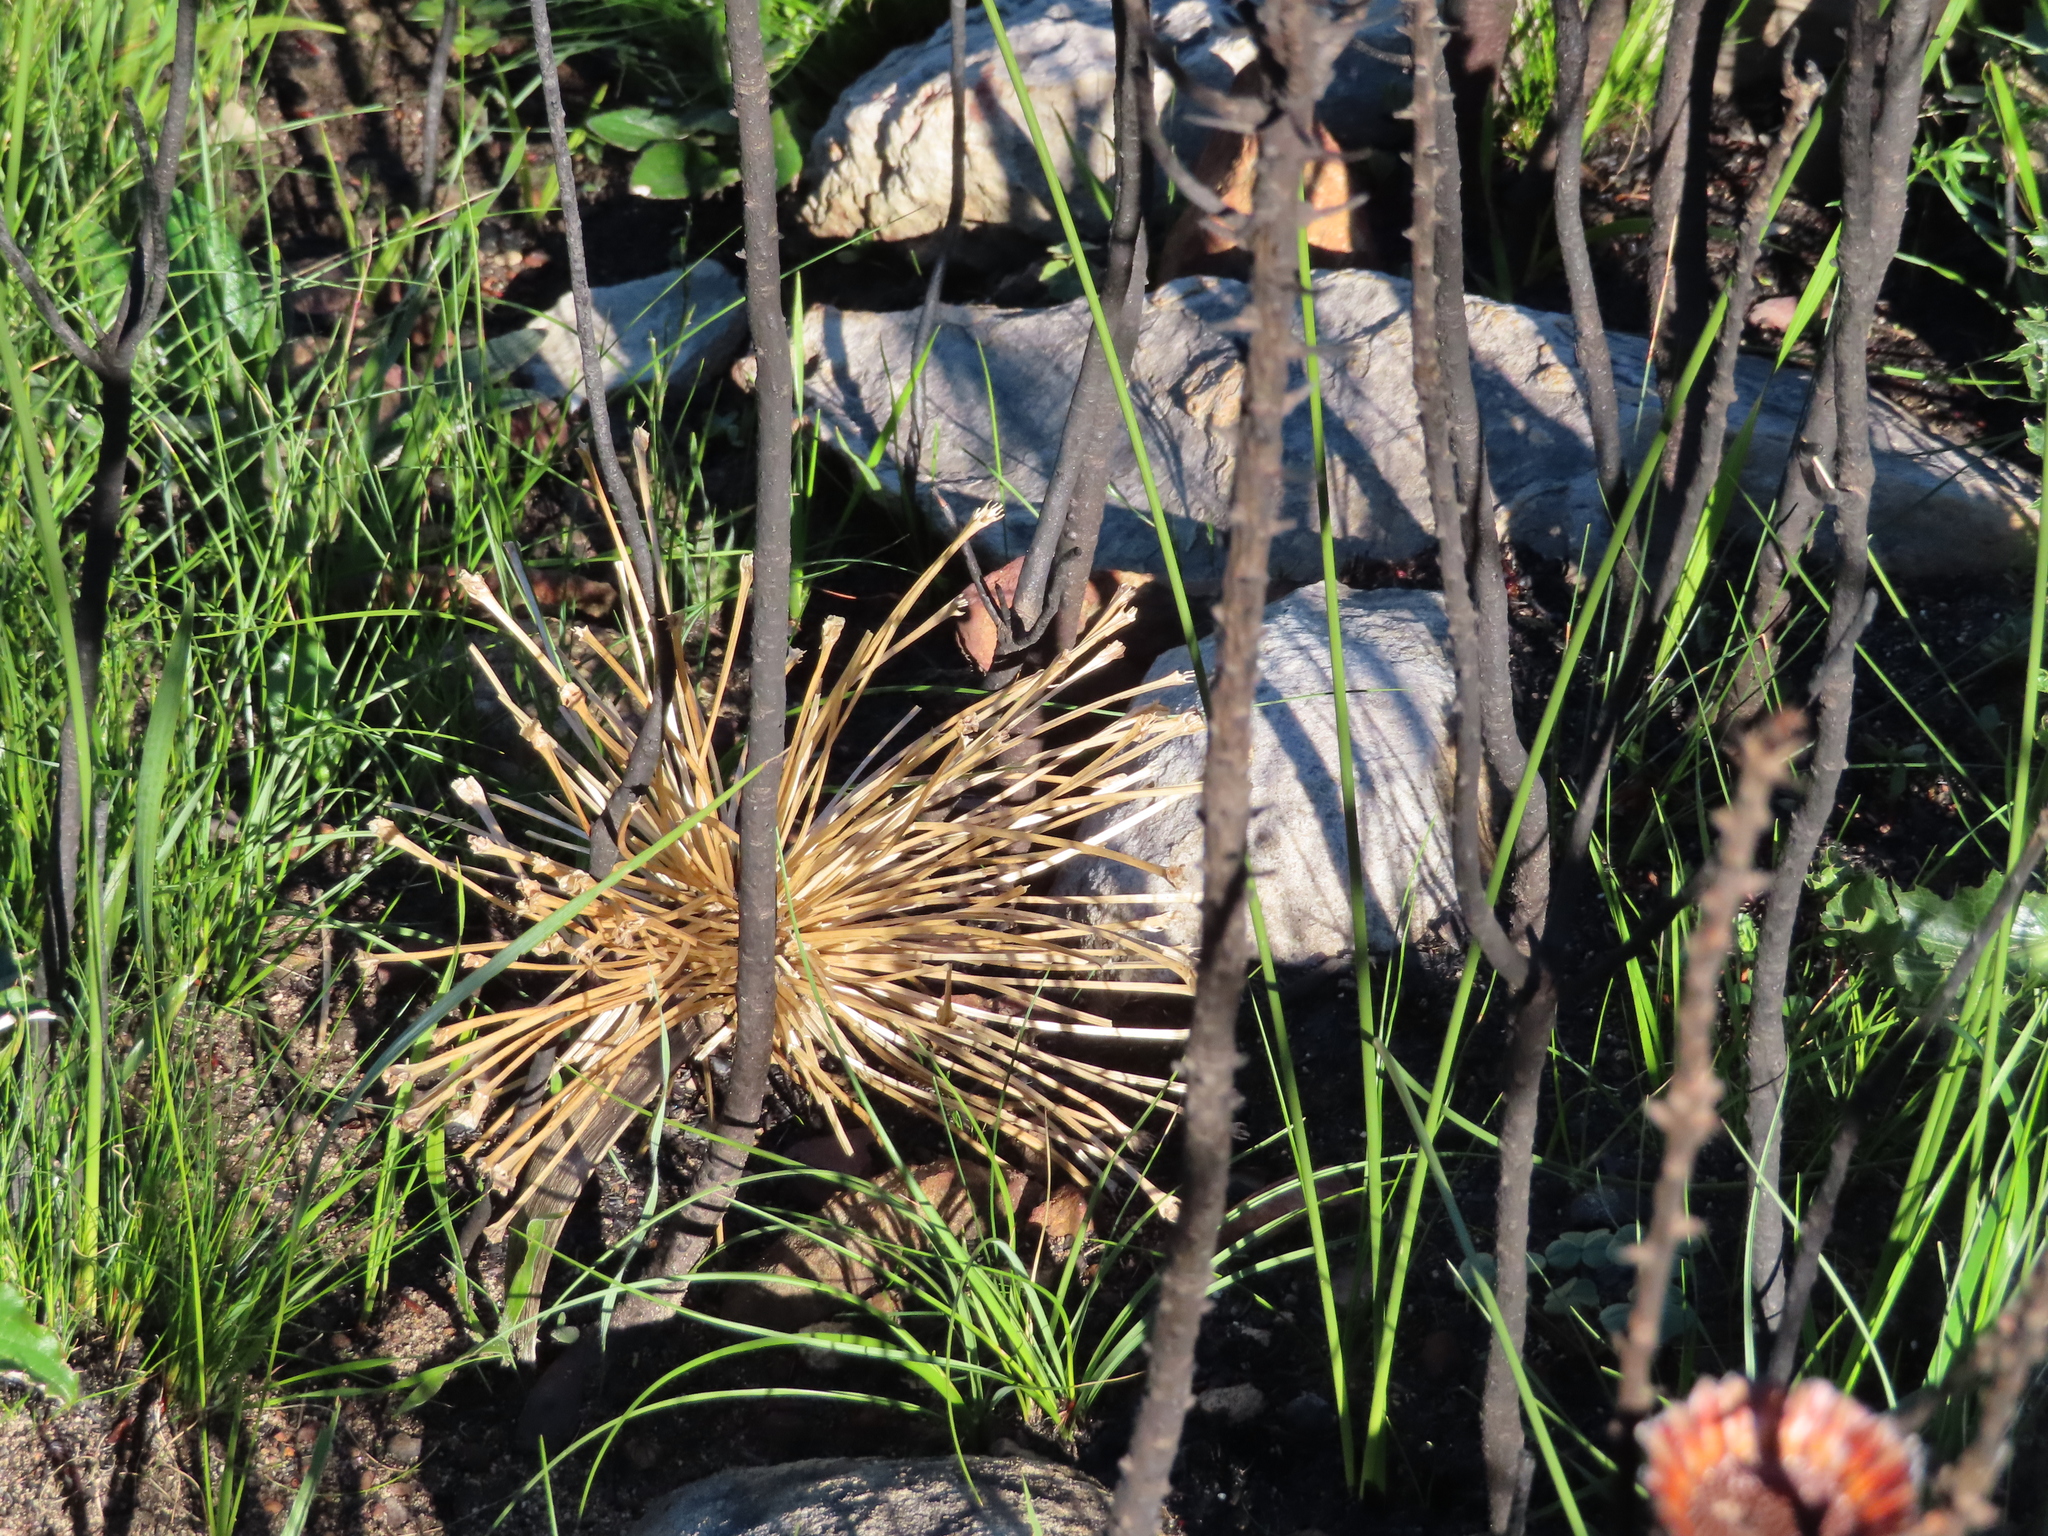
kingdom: Plantae
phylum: Tracheophyta
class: Liliopsida
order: Asparagales
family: Amaryllidaceae
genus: Crossyne
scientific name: Crossyne guttata
